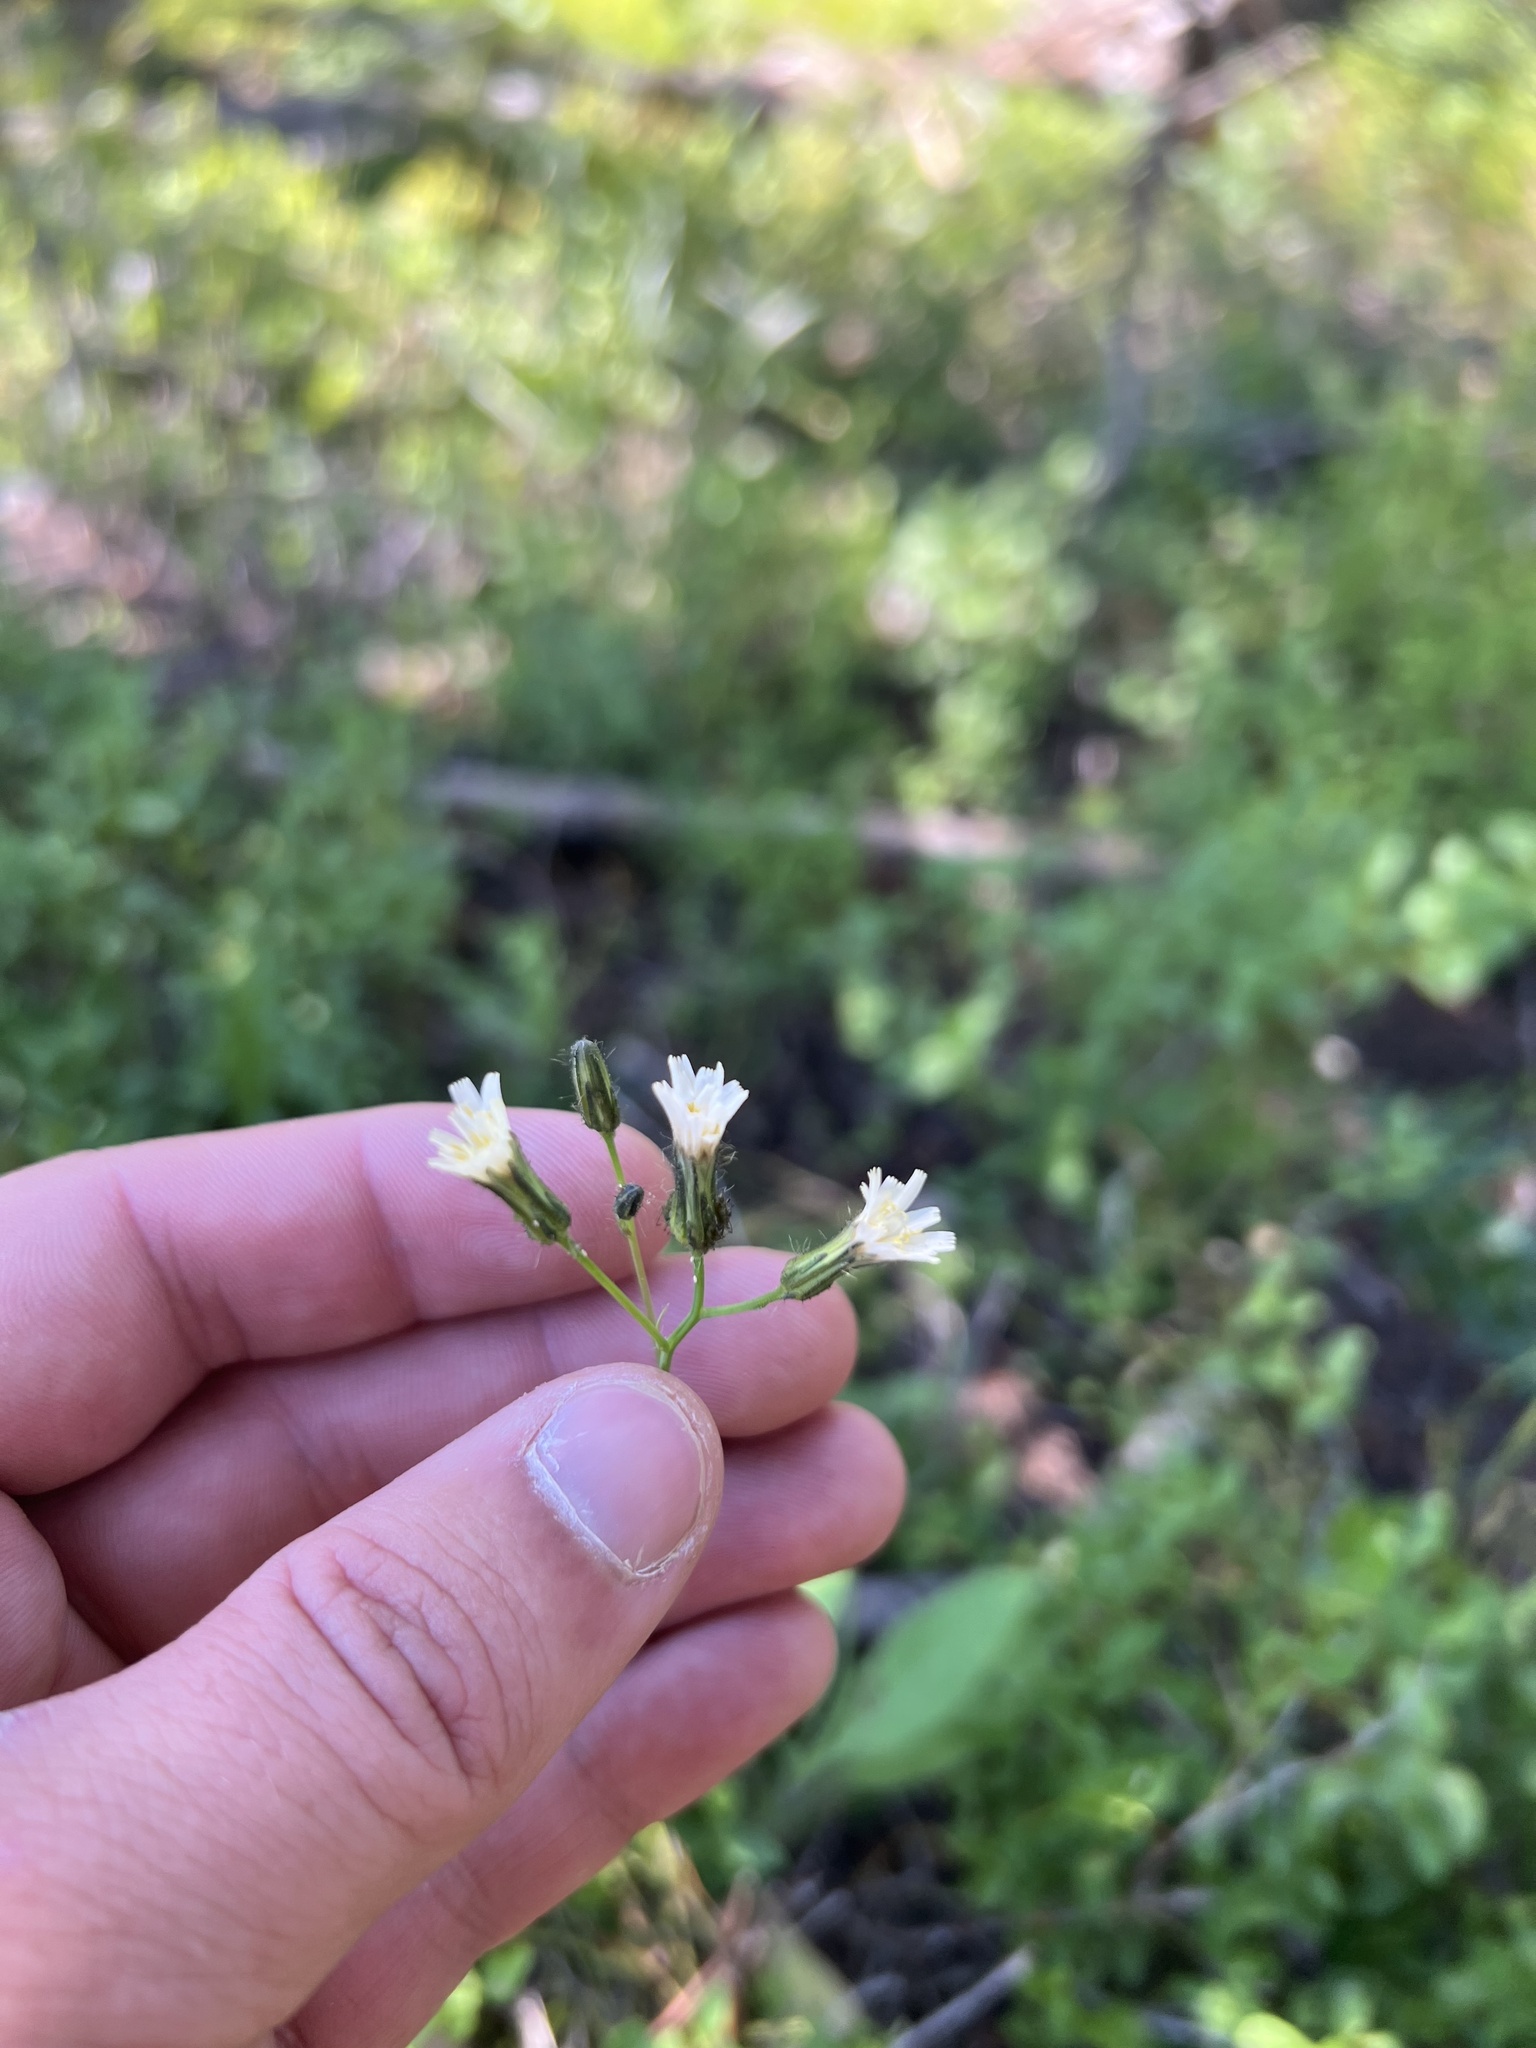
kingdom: Plantae
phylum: Tracheophyta
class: Magnoliopsida
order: Asterales
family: Asteraceae
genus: Hieracium
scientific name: Hieracium albiflorum
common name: White hawkweed
